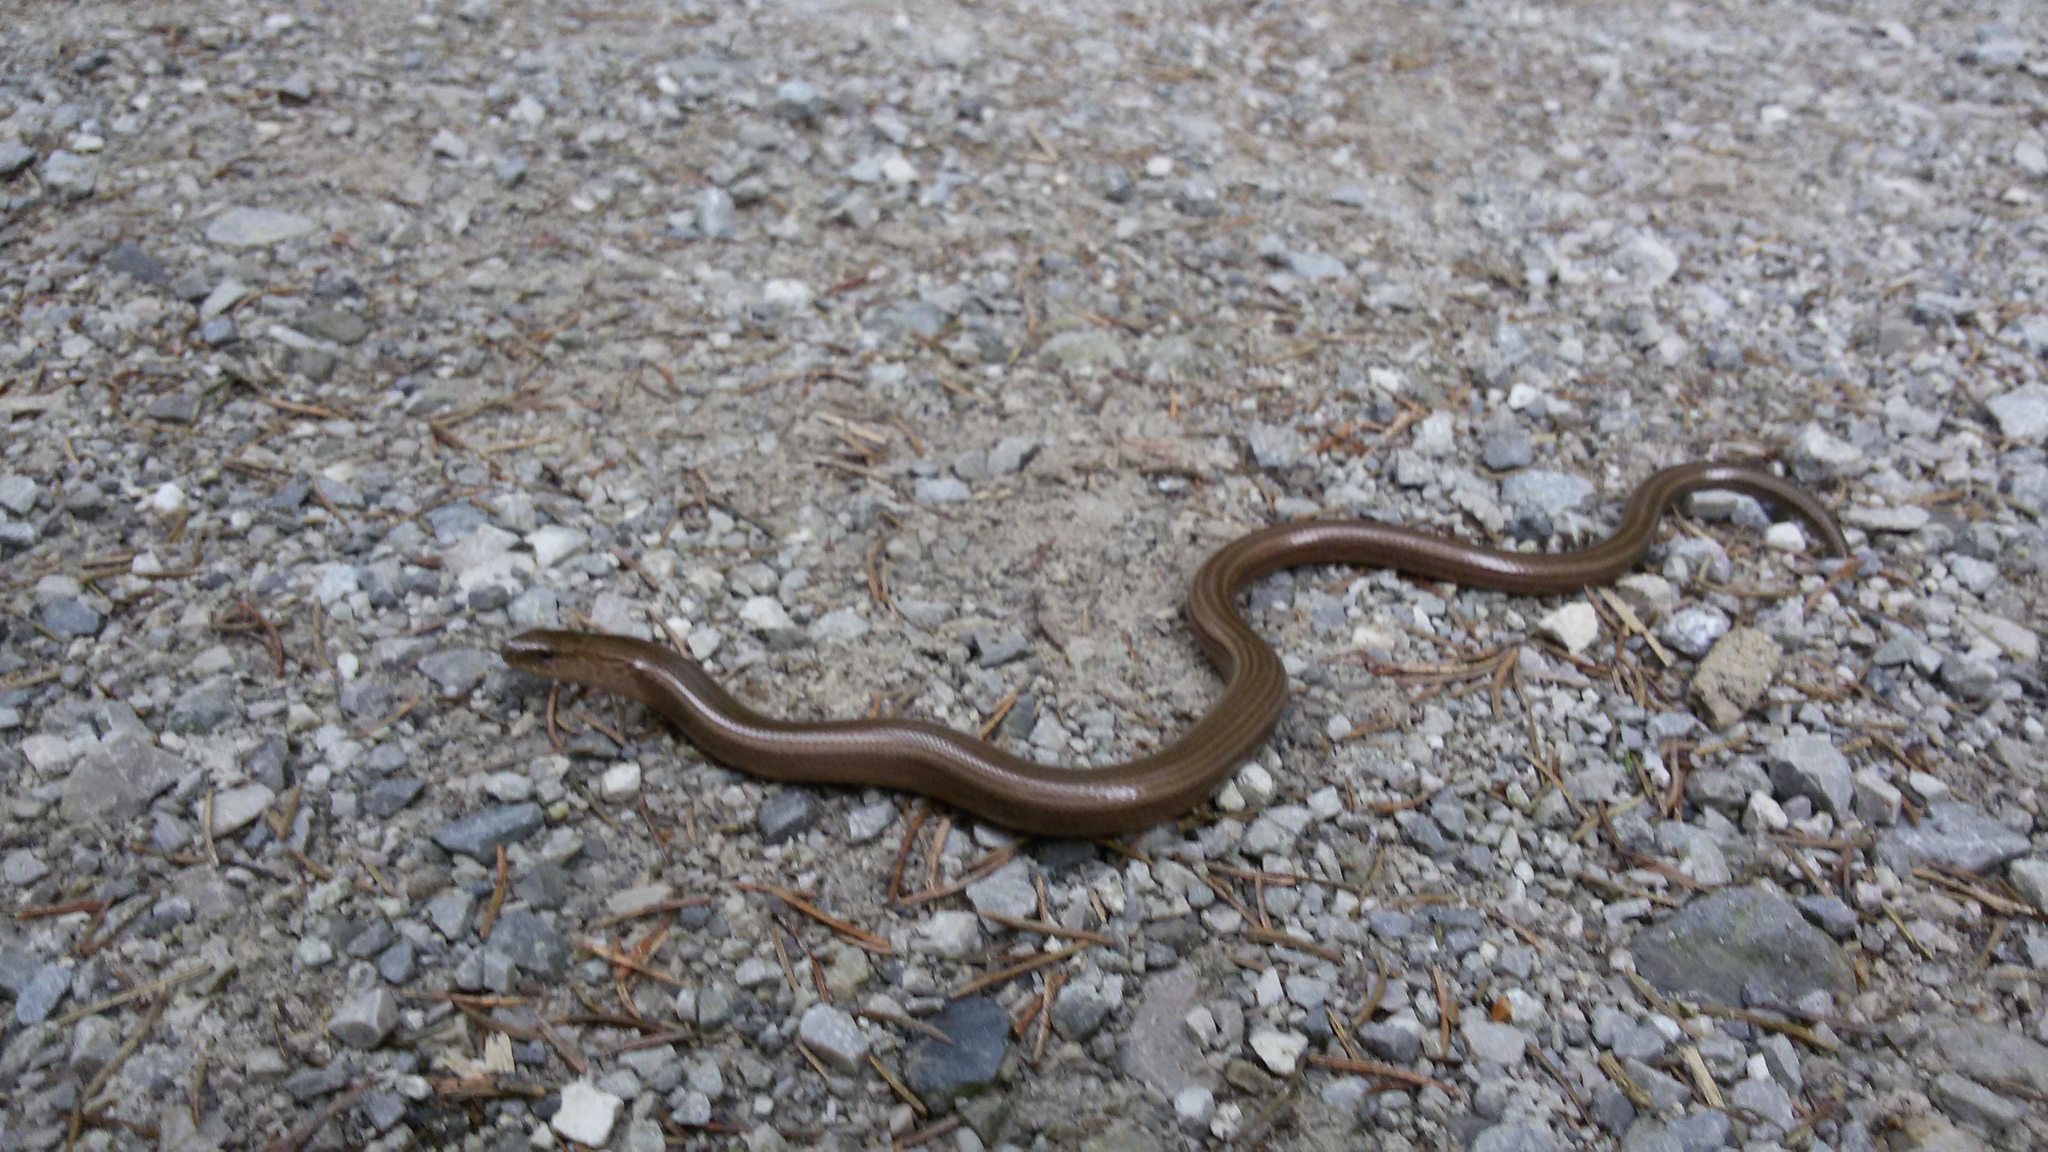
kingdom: Animalia
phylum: Chordata
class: Squamata
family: Anguidae
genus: Anguis
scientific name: Anguis fragilis
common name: Slow worm
